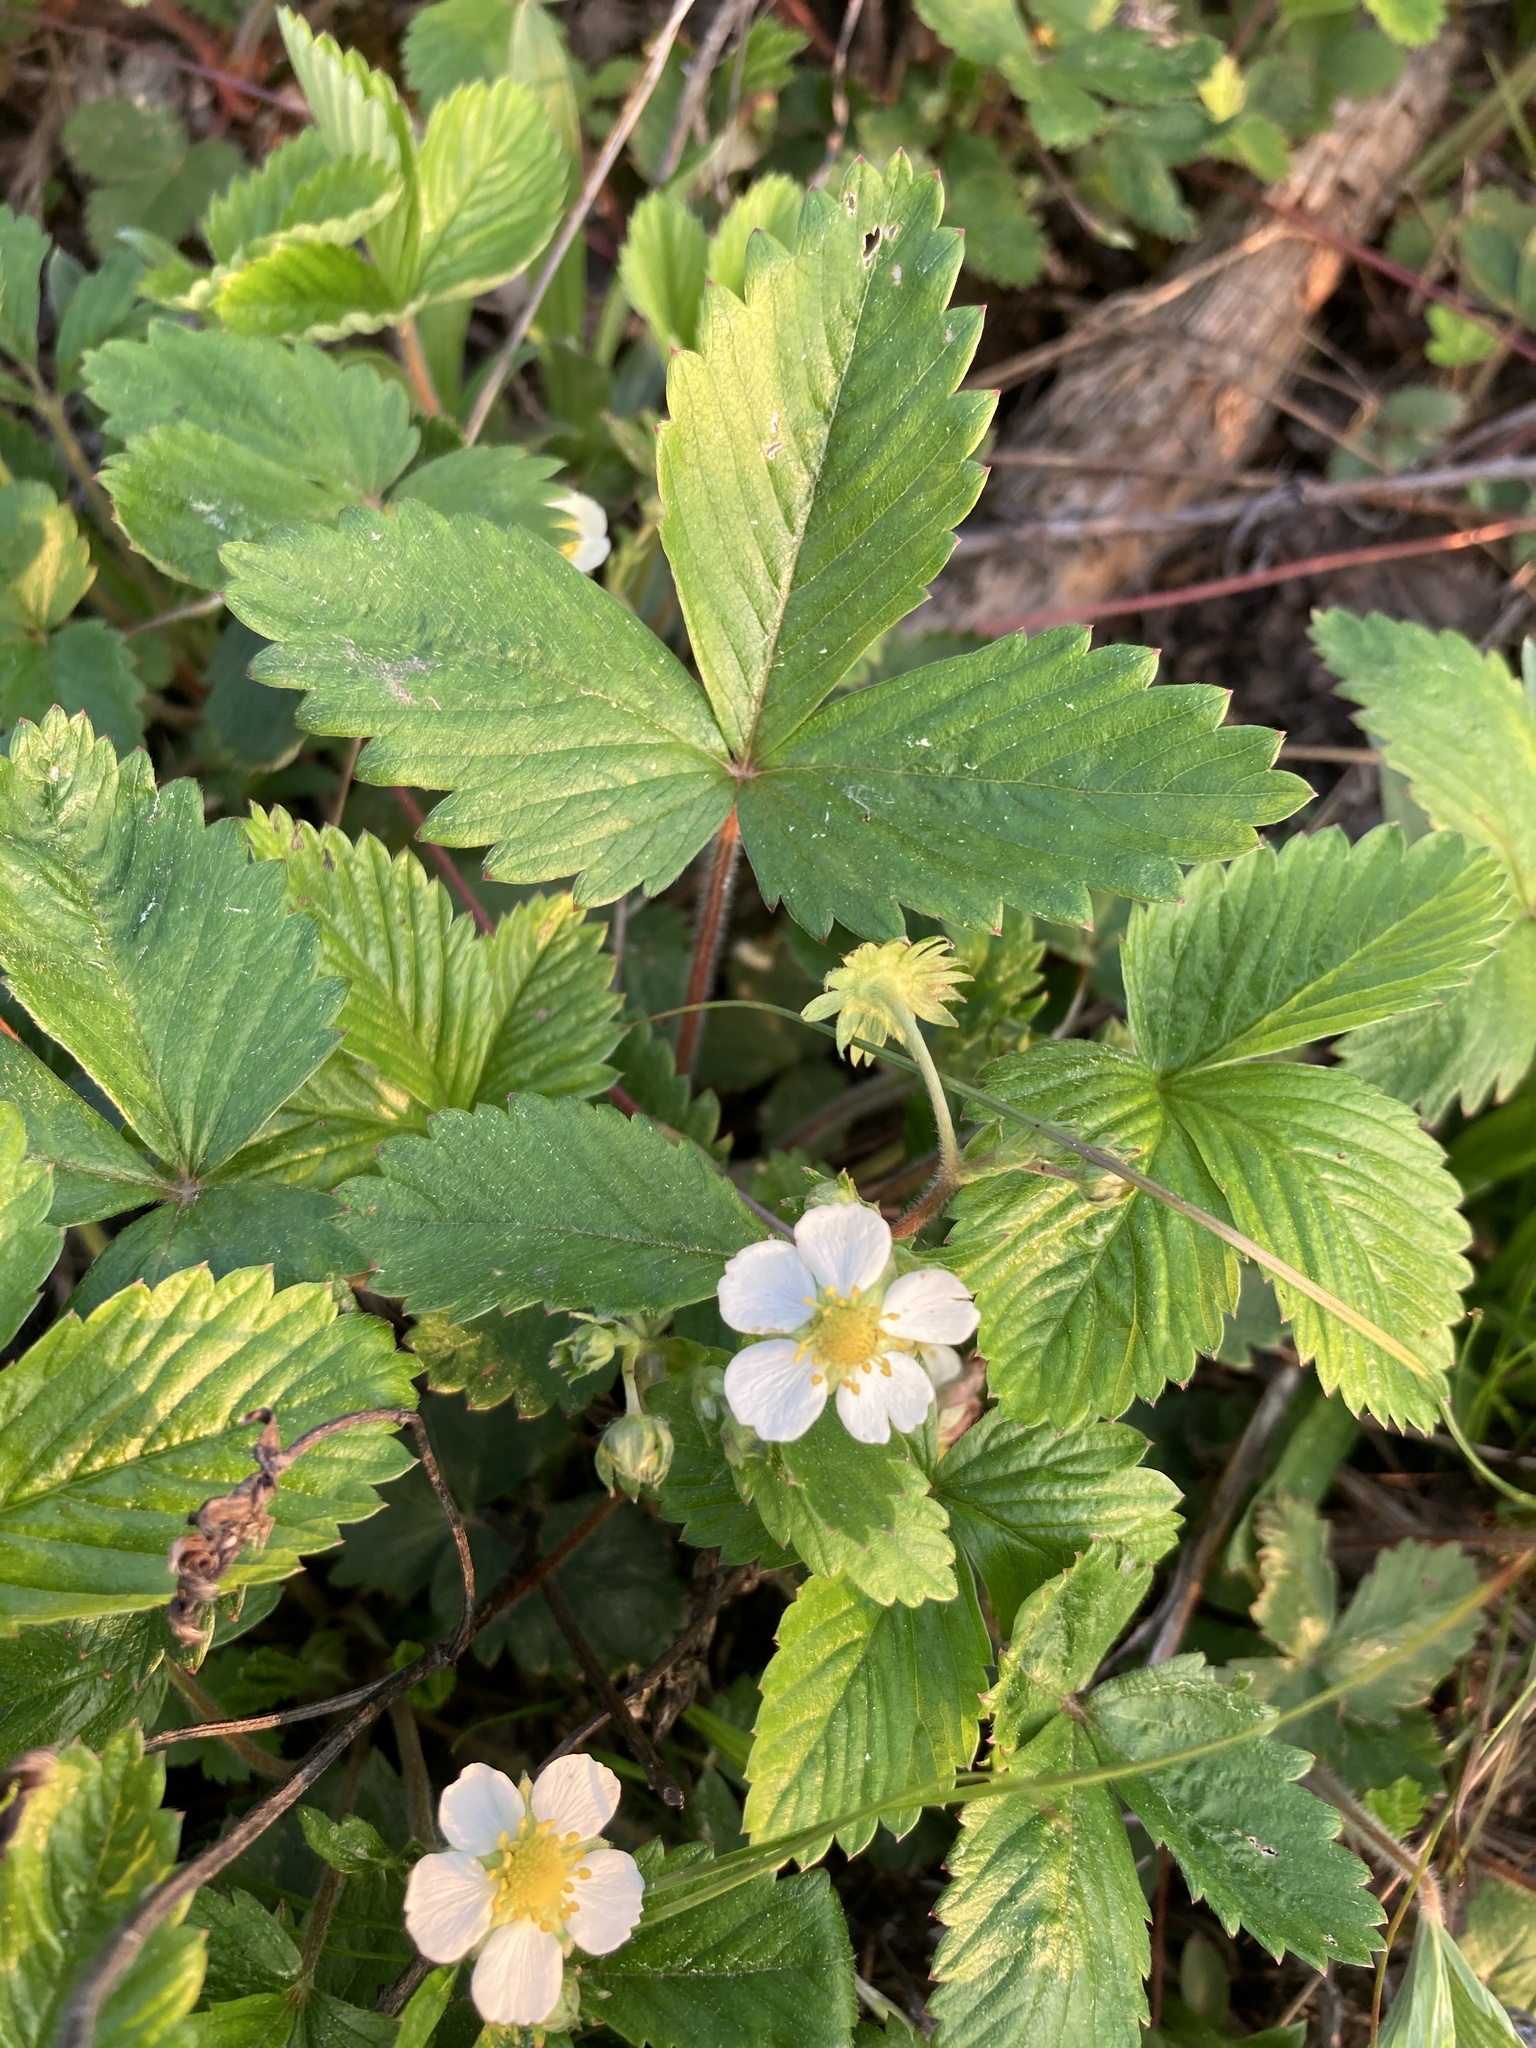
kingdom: Plantae
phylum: Tracheophyta
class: Magnoliopsida
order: Rosales
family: Rosaceae
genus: Fragaria
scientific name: Fragaria vesca
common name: Wild strawberry
